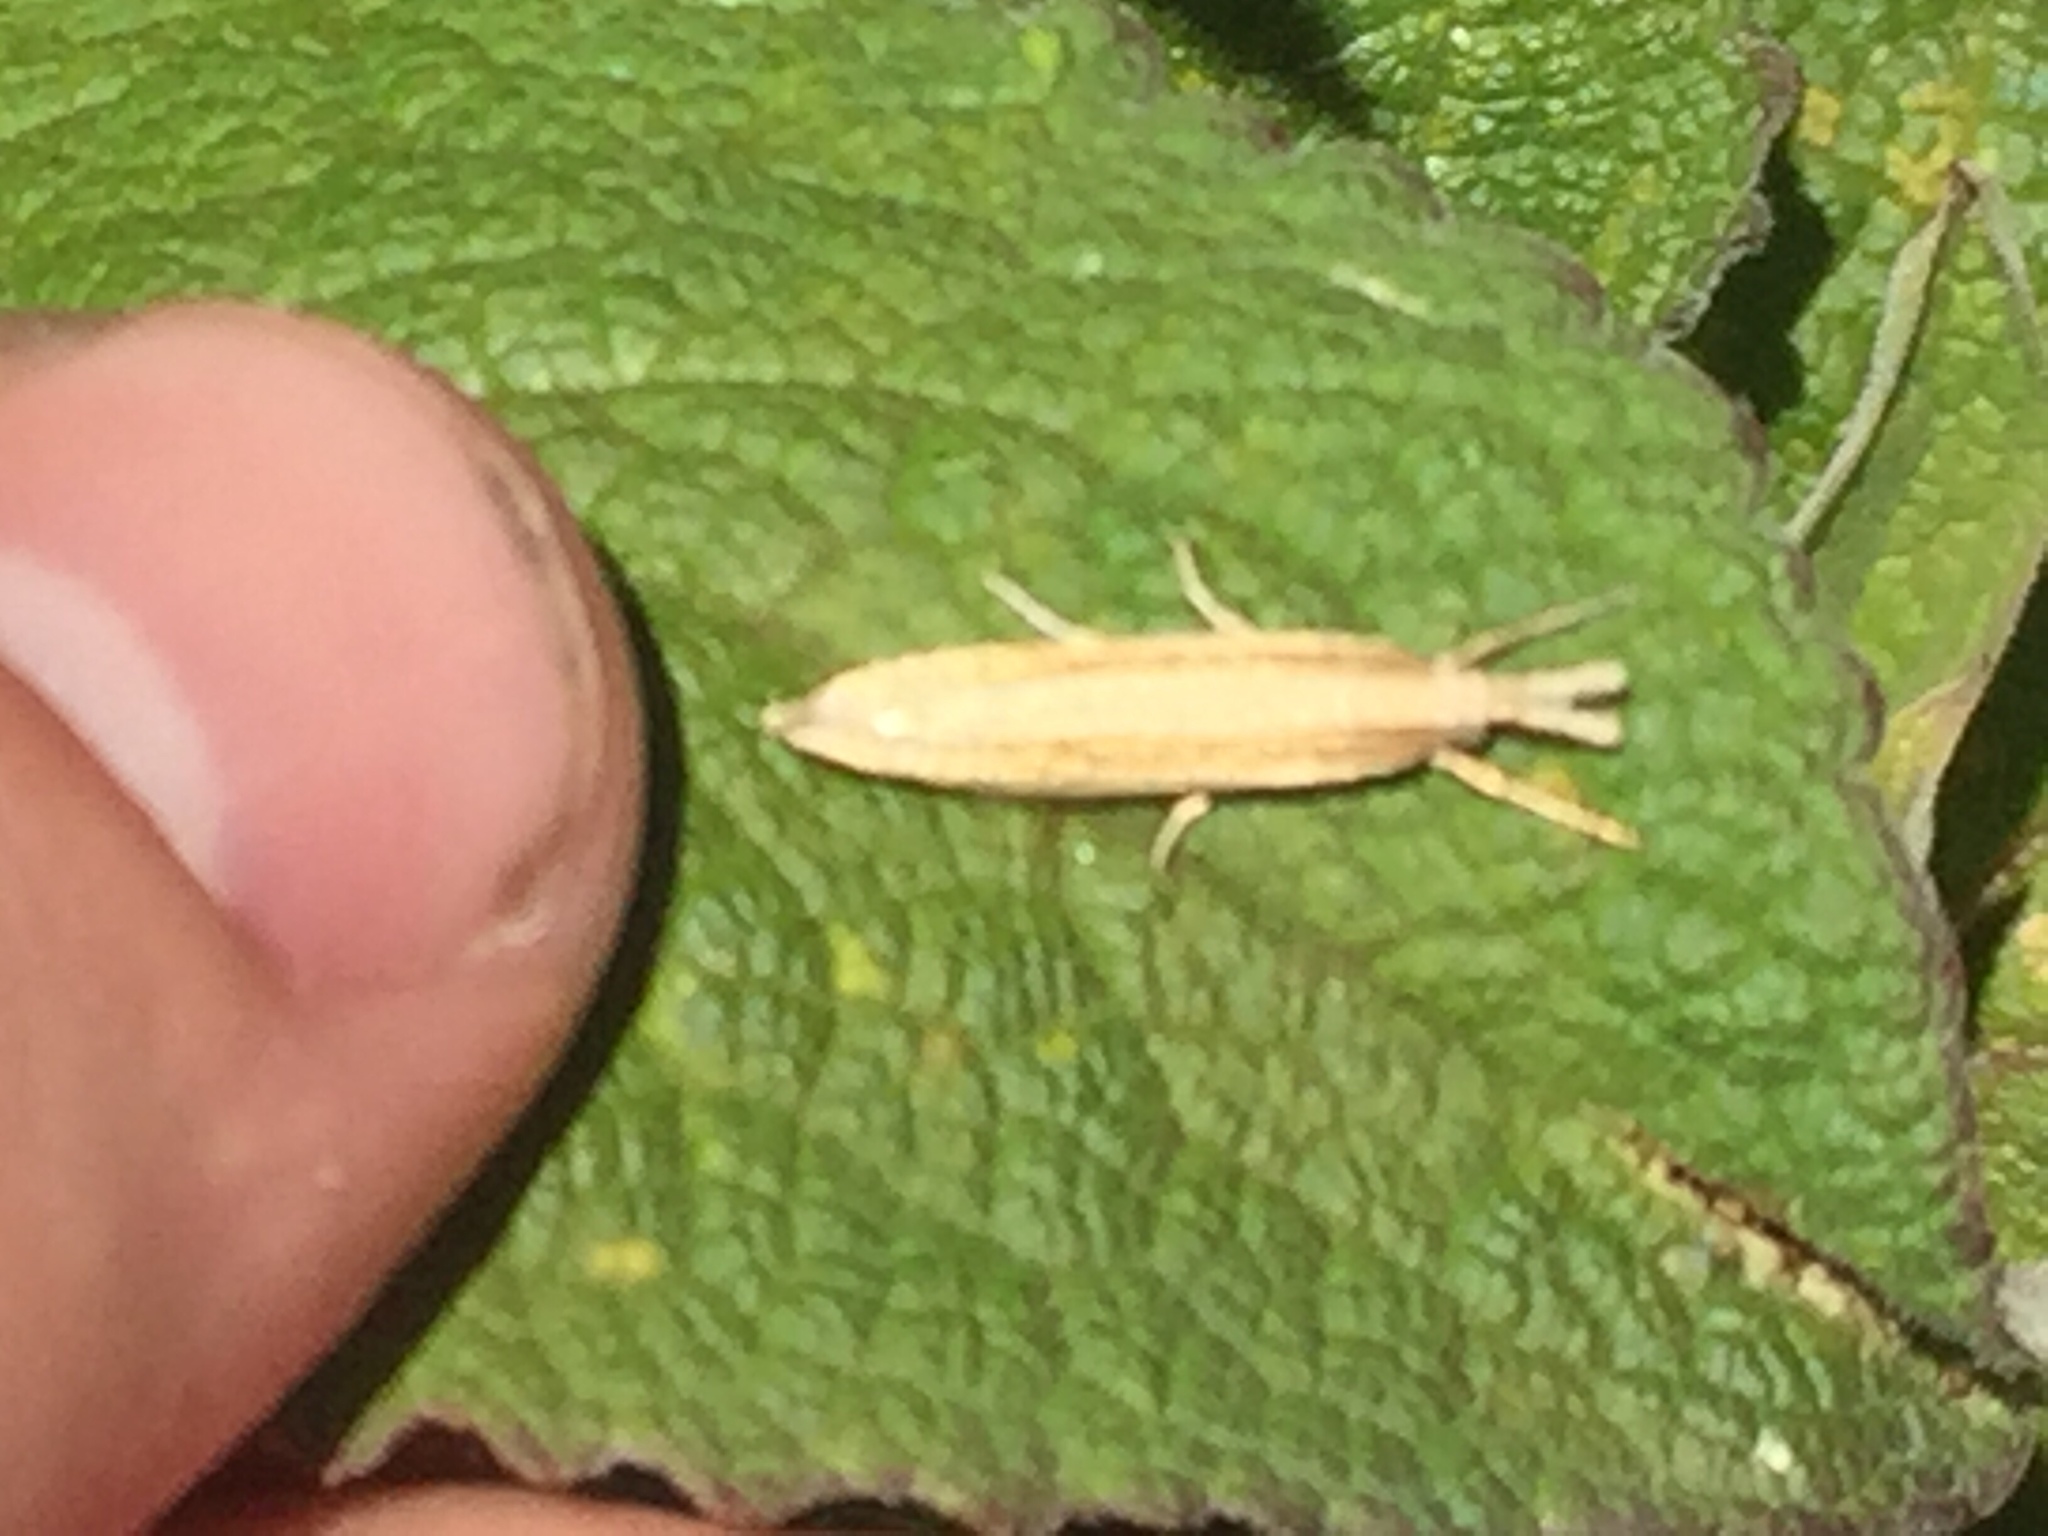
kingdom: Animalia
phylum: Arthropoda
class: Insecta
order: Lepidoptera
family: Crambidae
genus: Orocrambus
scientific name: Orocrambus ramosellus
